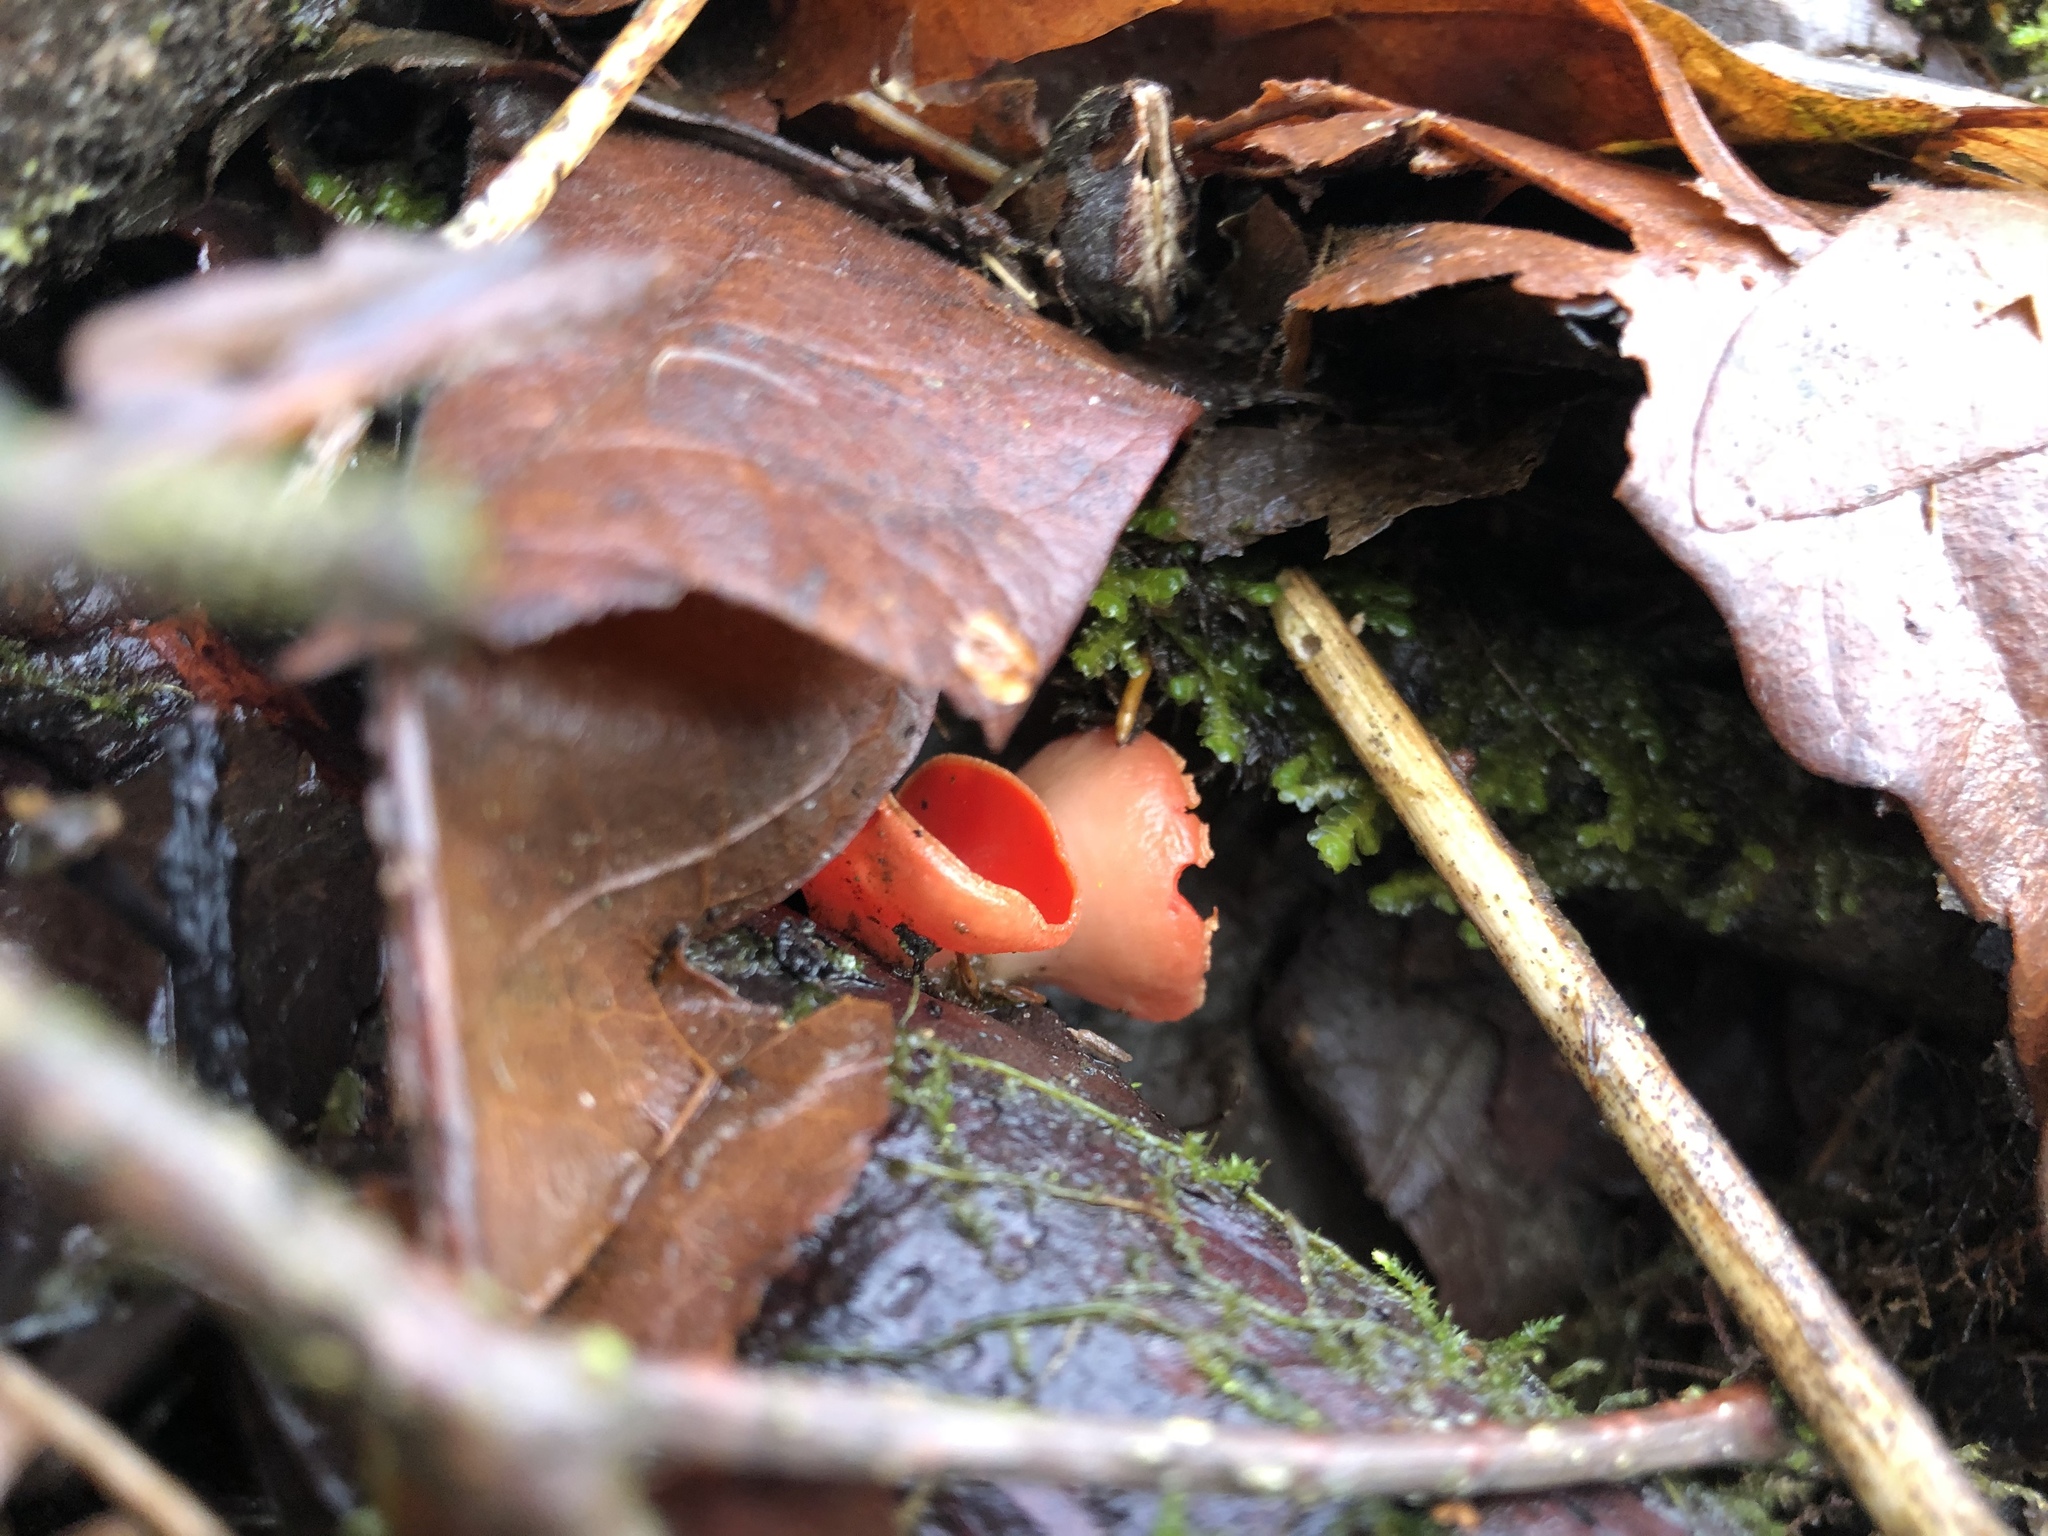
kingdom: Fungi
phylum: Ascomycota
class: Pezizomycetes
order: Pezizales
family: Sarcoscyphaceae
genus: Sarcoscypha
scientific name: Sarcoscypha coccinea
